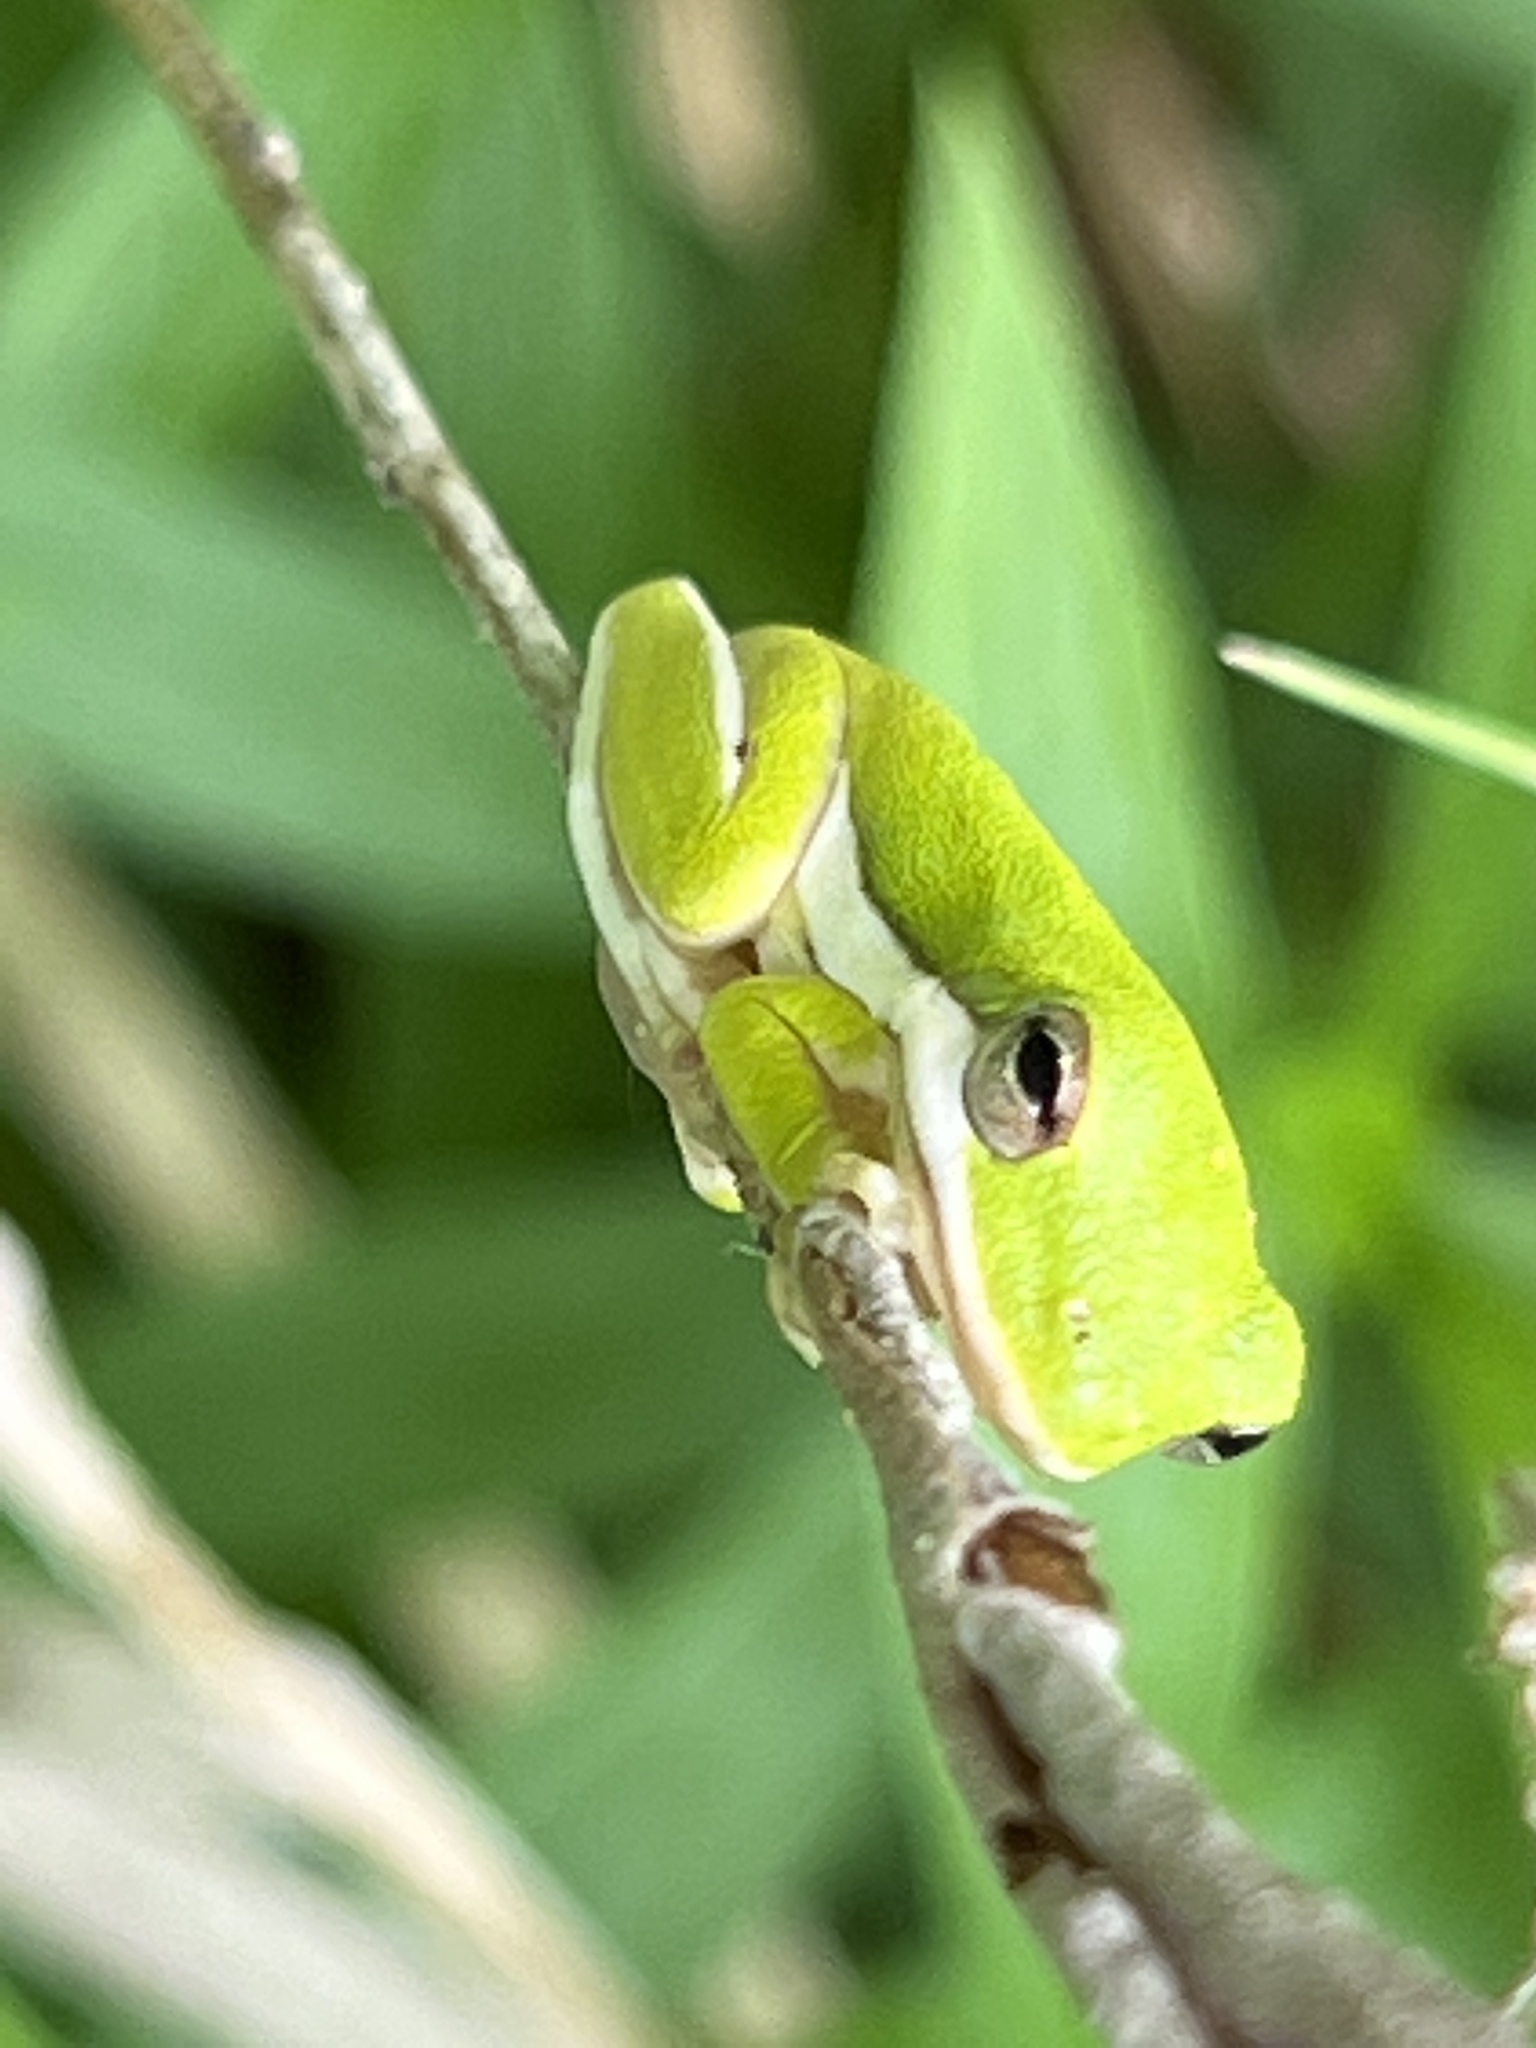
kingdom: Animalia
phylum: Chordata
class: Amphibia
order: Anura
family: Hylidae
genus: Dryophytes
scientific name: Dryophytes cinereus
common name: Green treefrog
